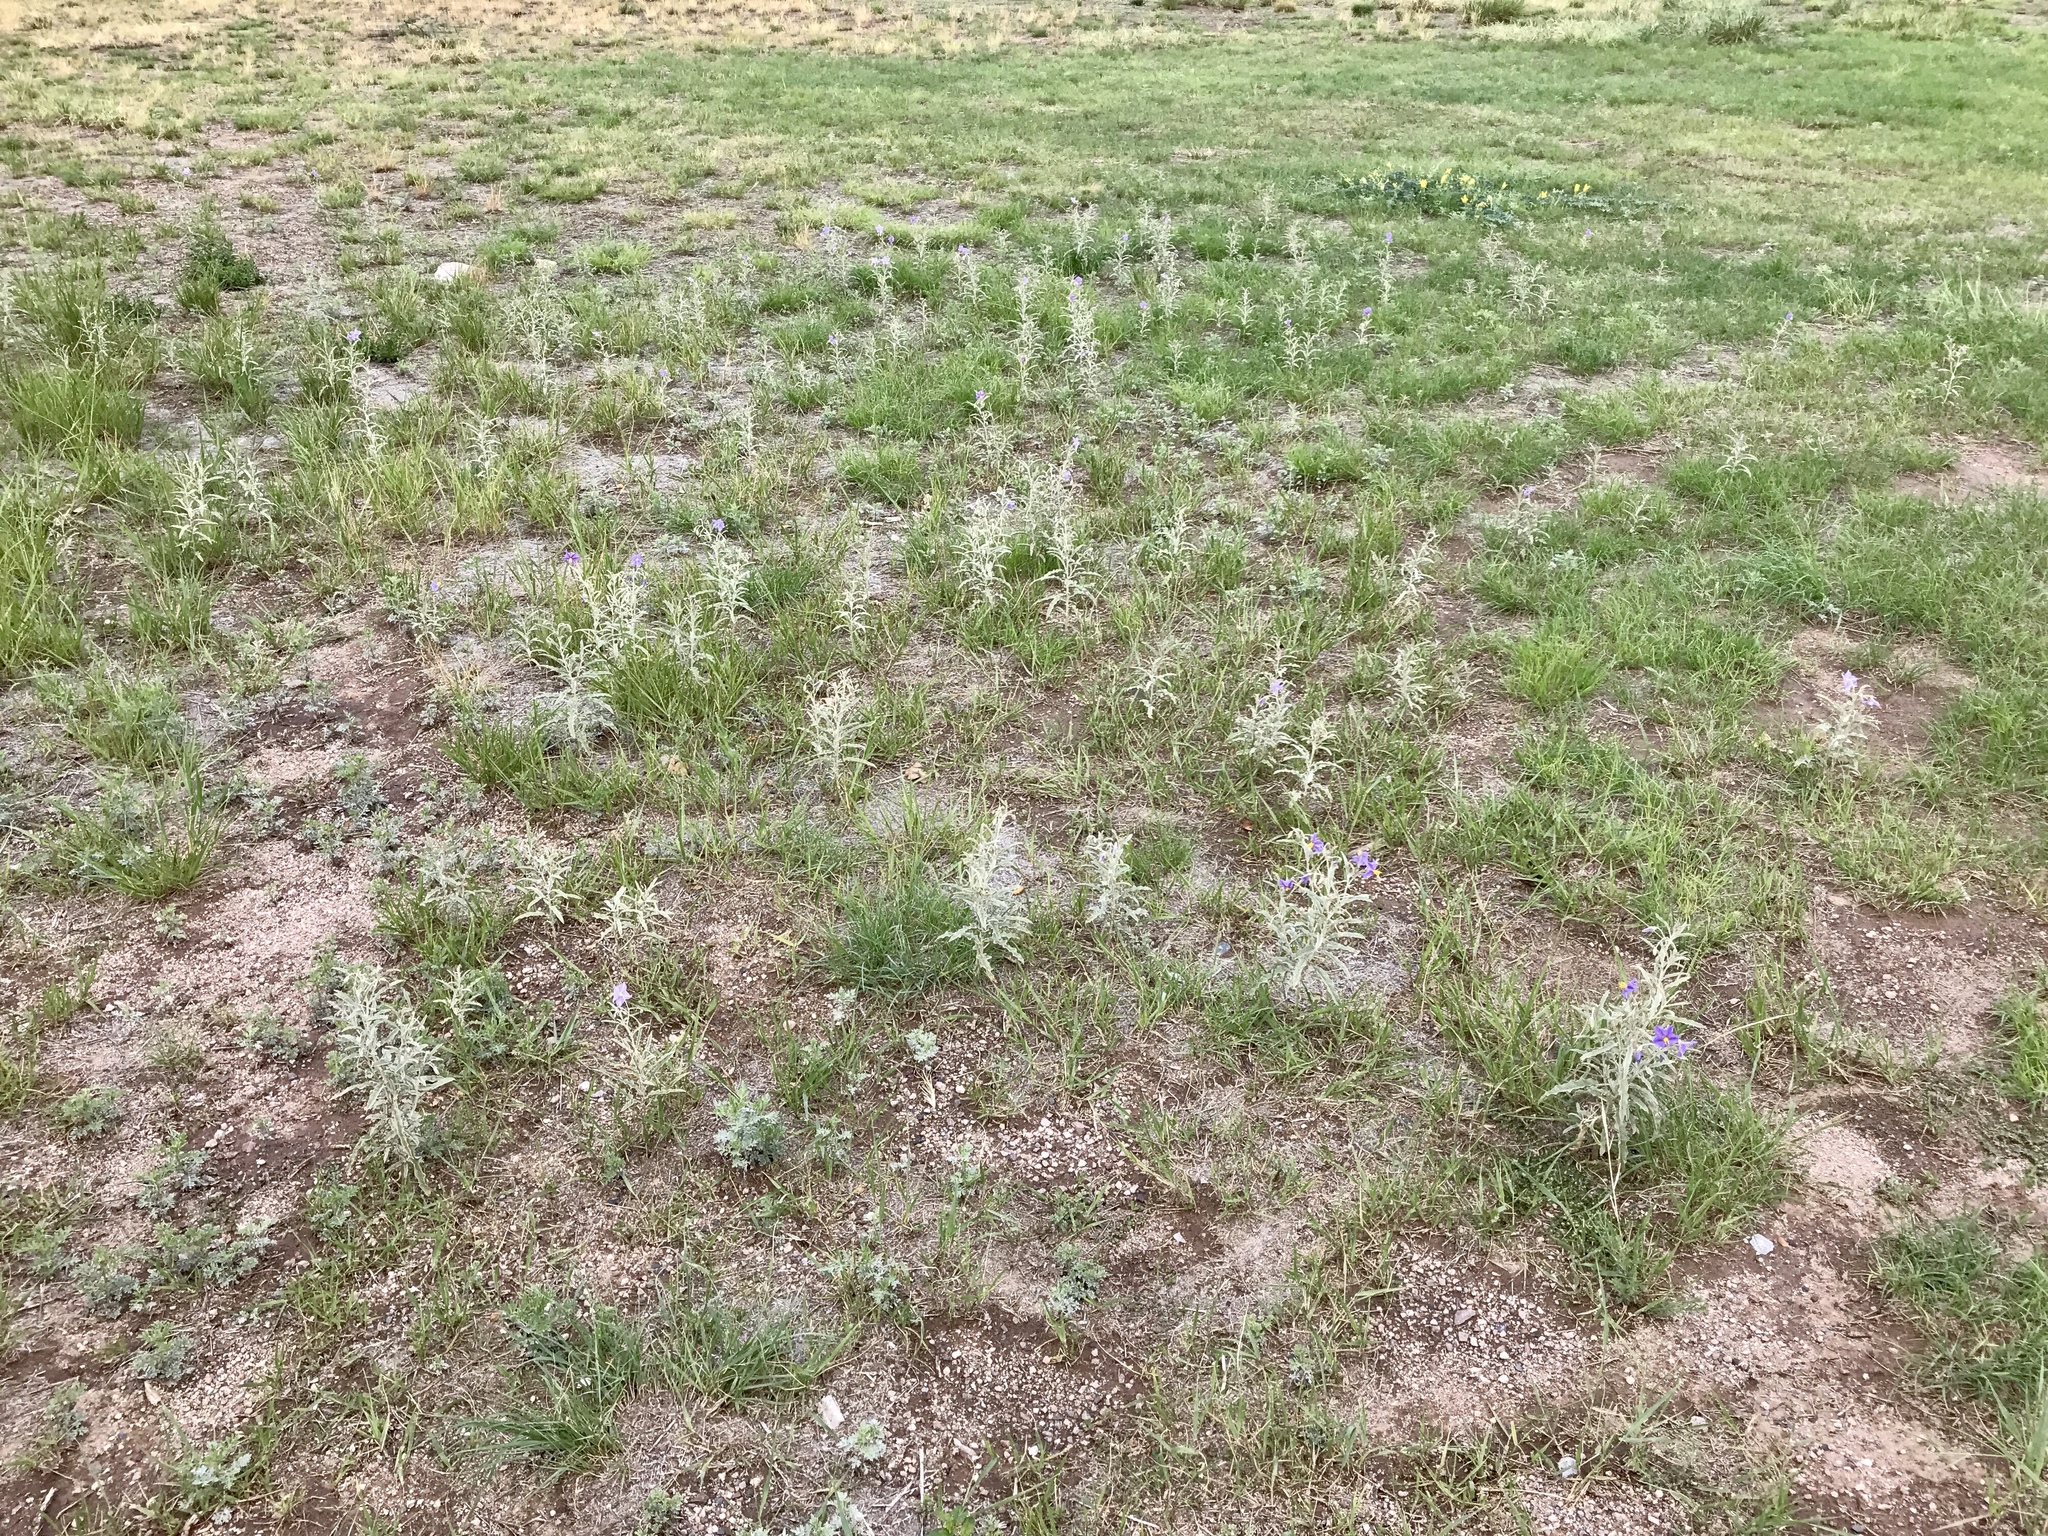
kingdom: Plantae
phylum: Tracheophyta
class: Magnoliopsida
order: Solanales
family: Solanaceae
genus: Solanum
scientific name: Solanum elaeagnifolium
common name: Silverleaf nightshade
